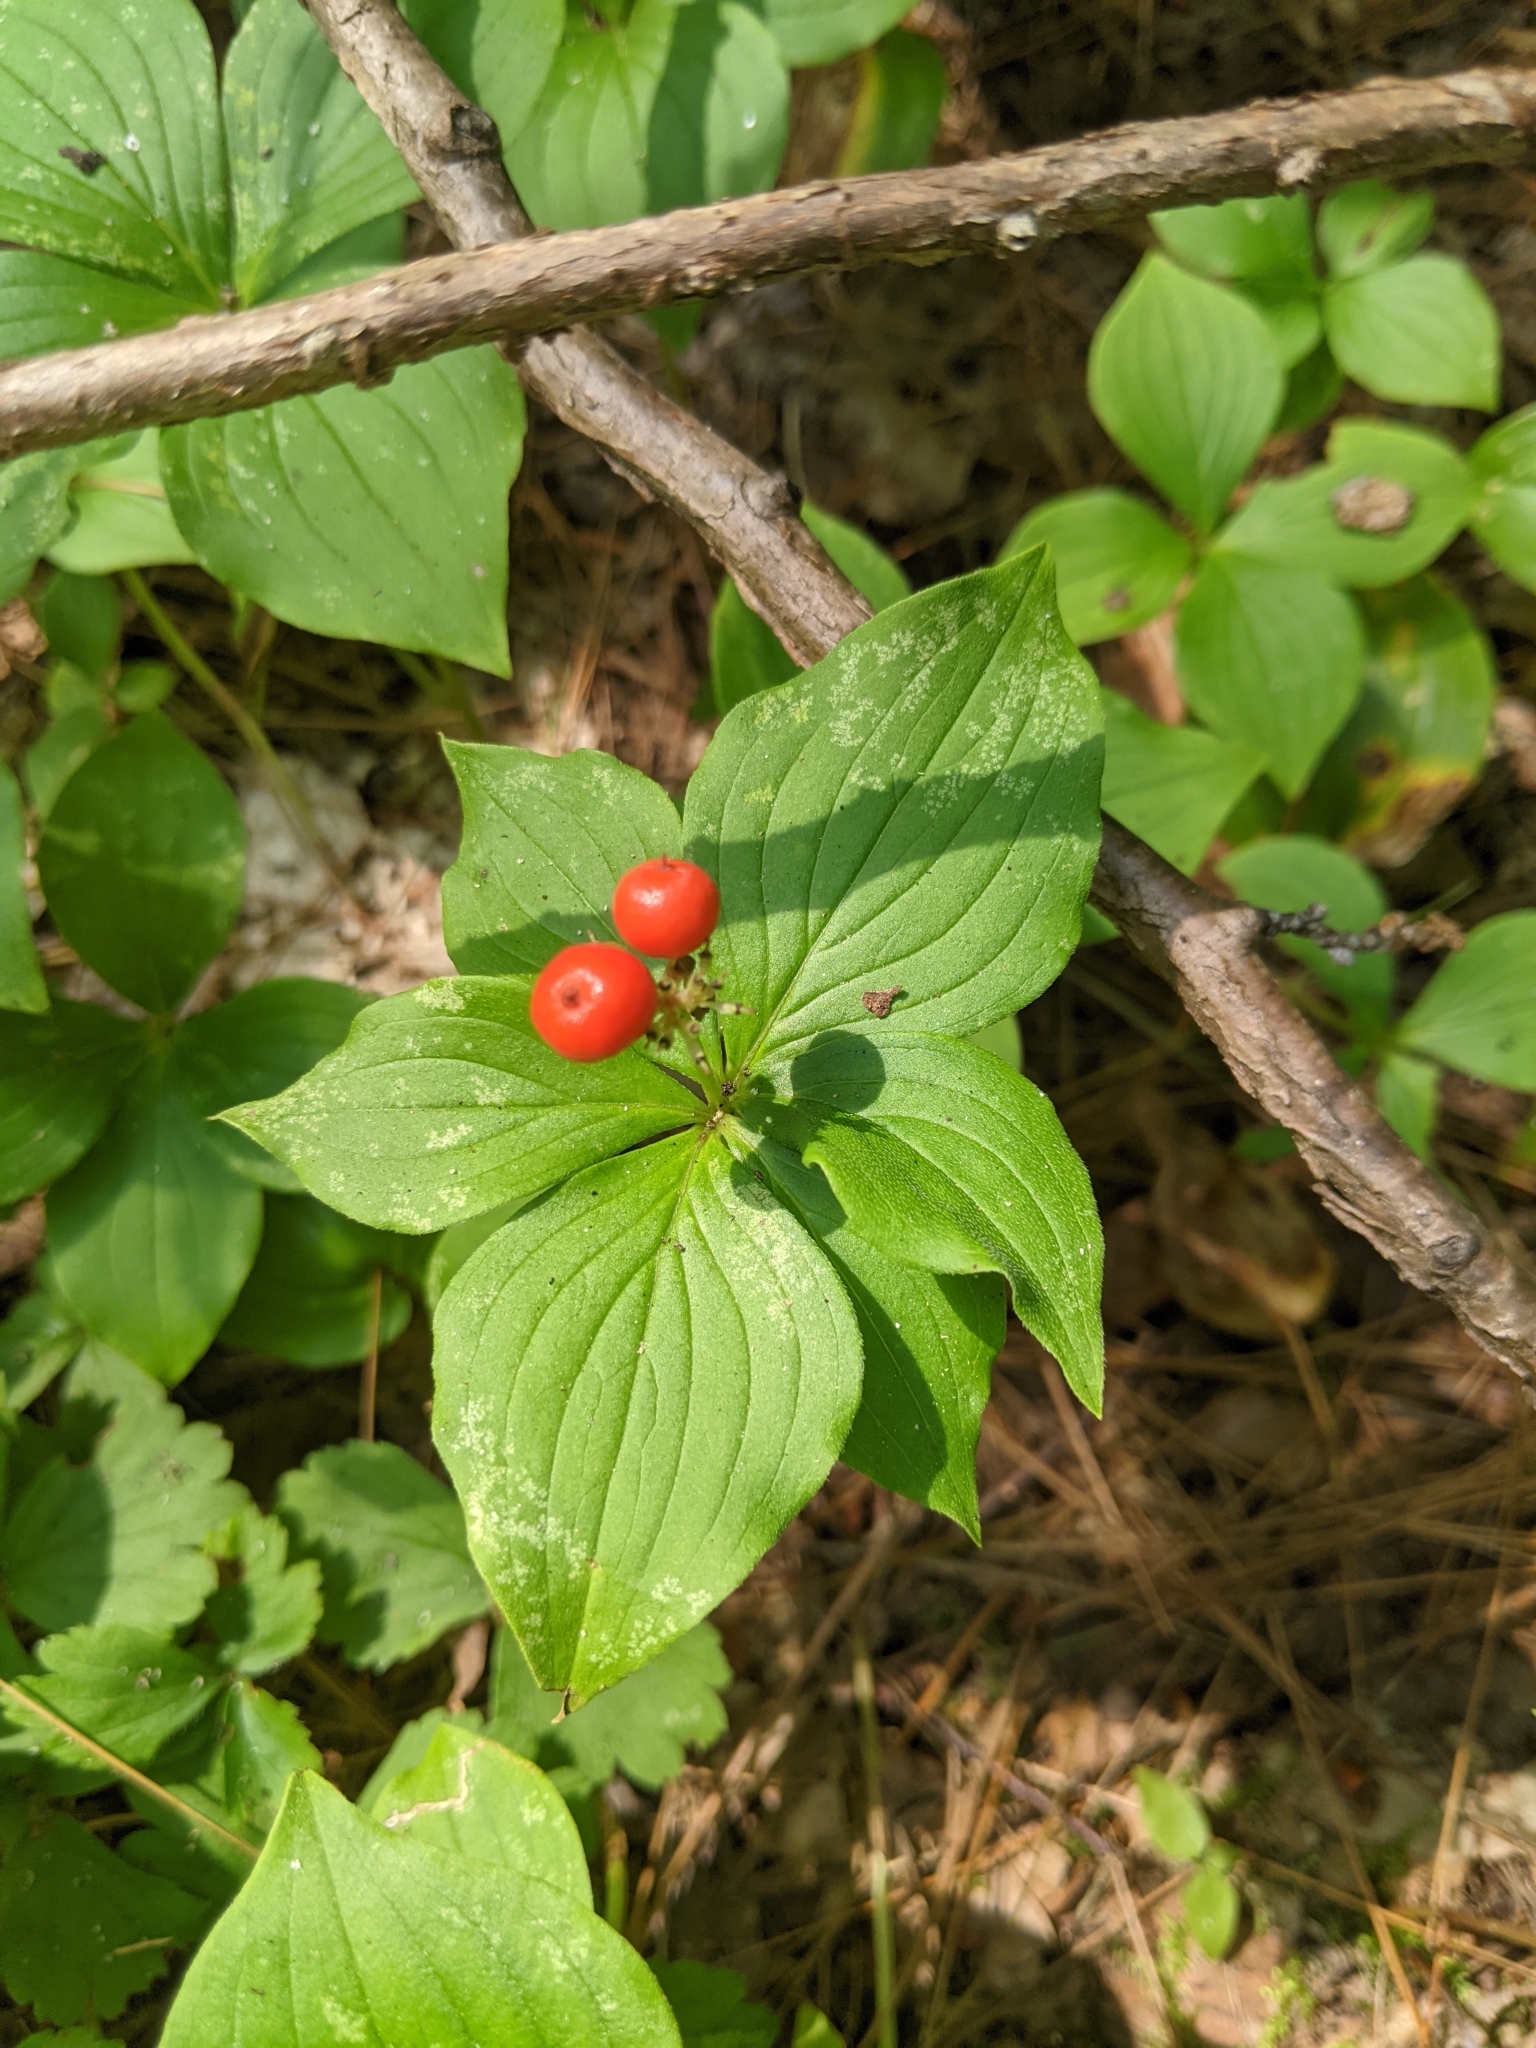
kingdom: Plantae
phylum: Tracheophyta
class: Magnoliopsida
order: Cornales
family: Cornaceae
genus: Cornus
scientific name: Cornus canadensis
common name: Creeping dogwood
